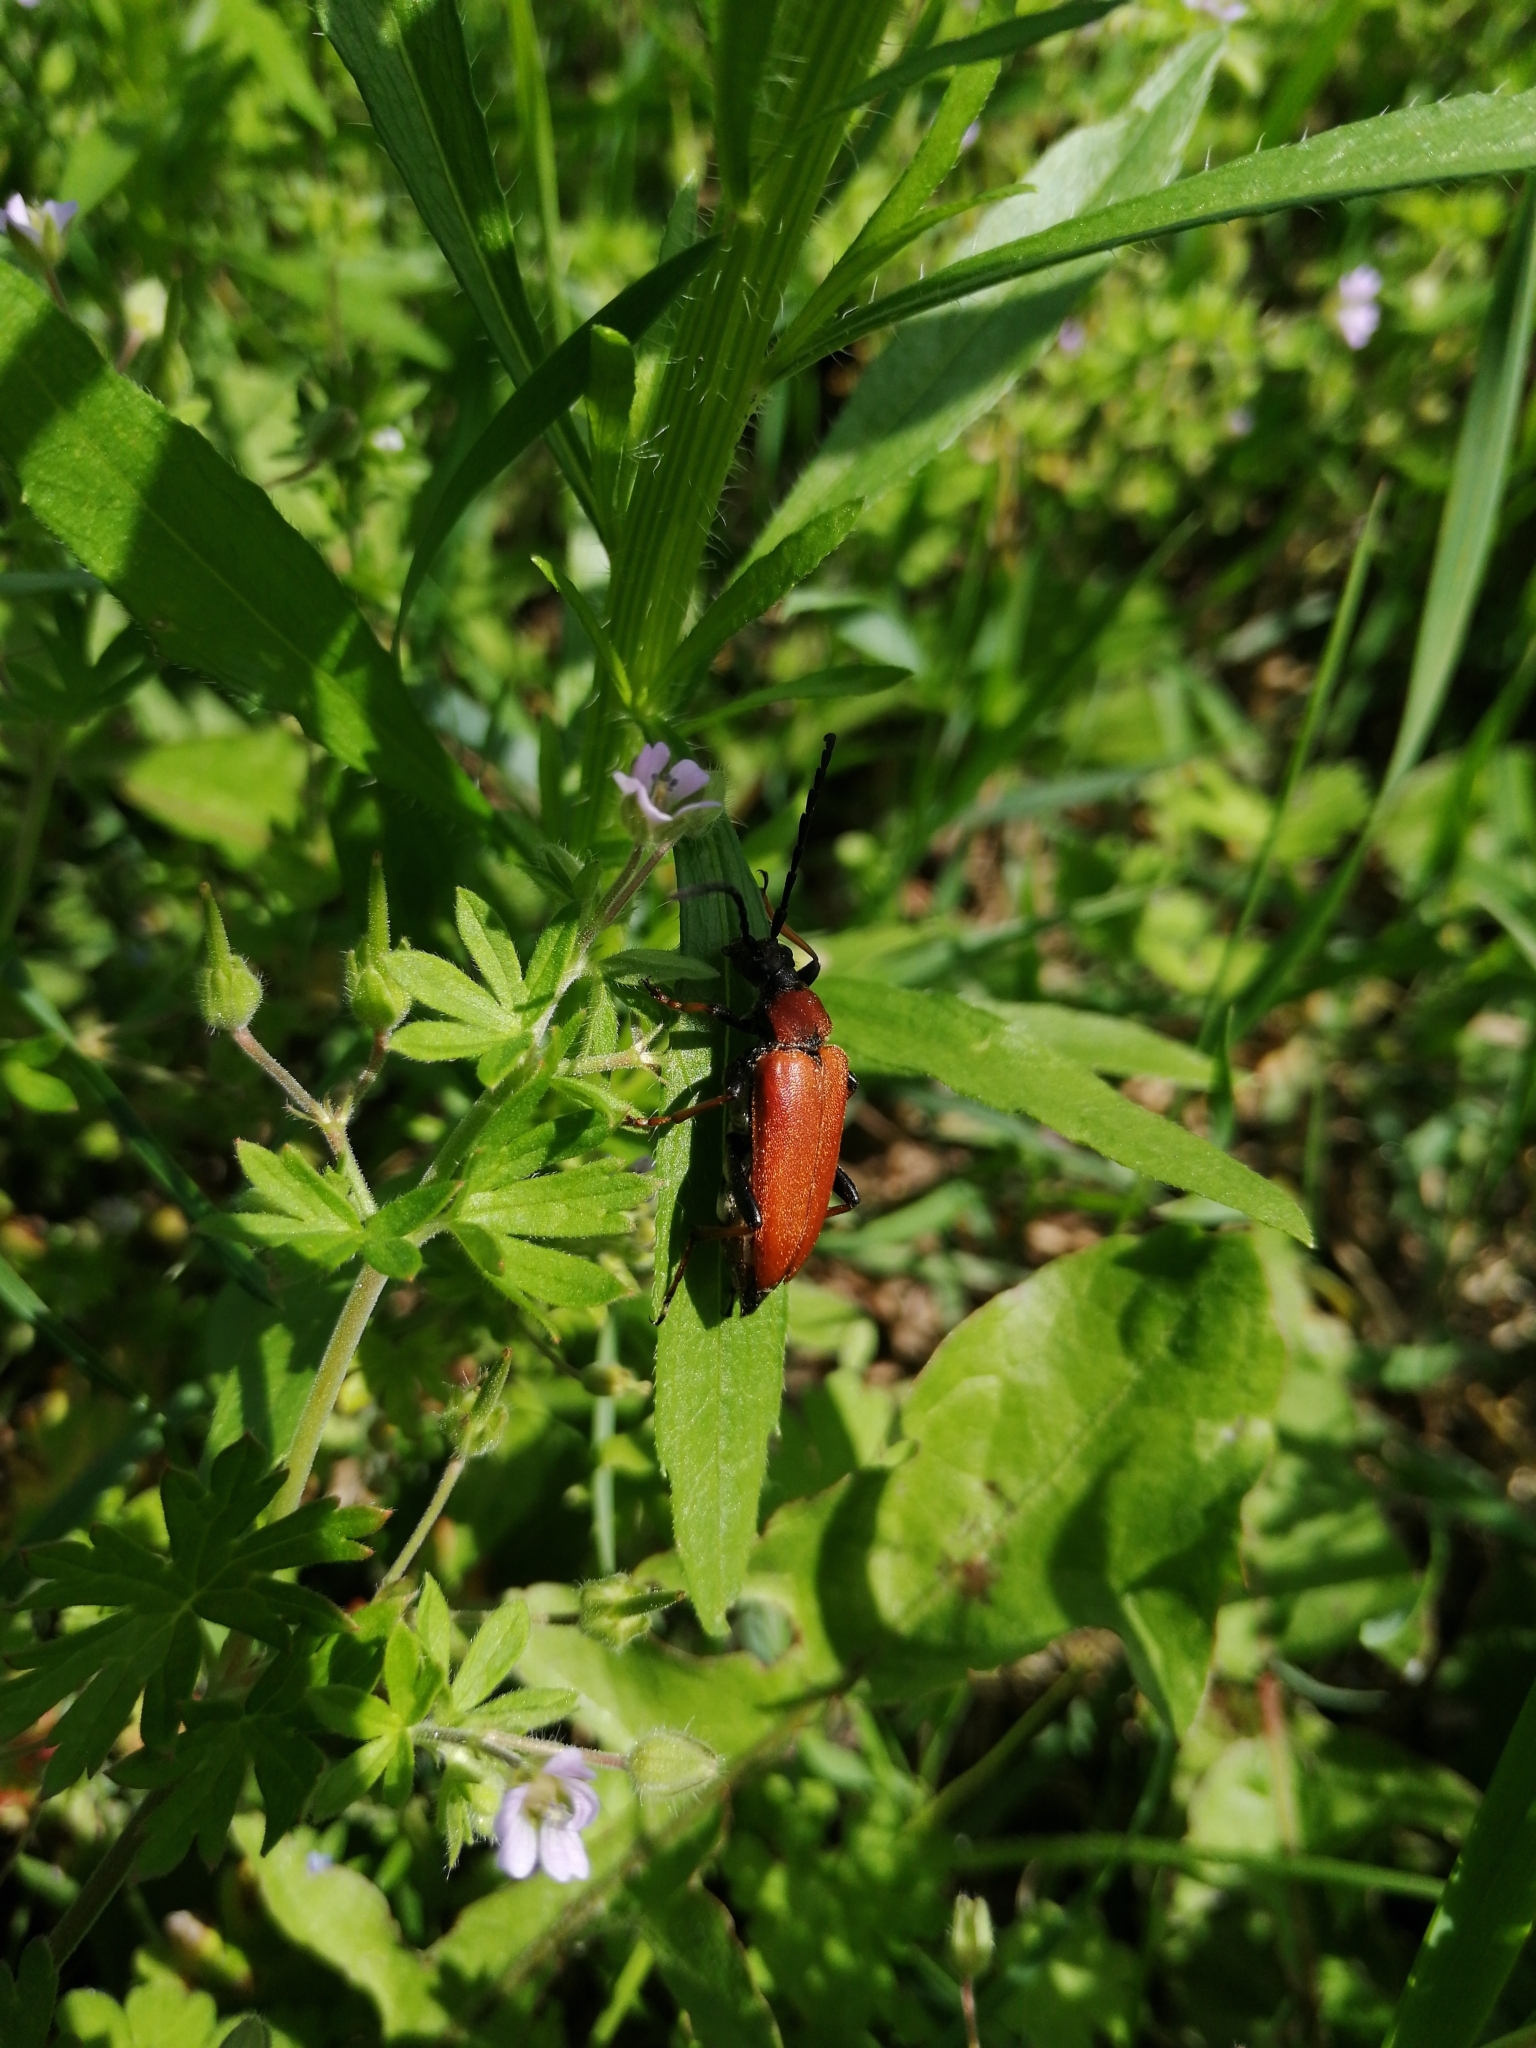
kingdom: Animalia
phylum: Arthropoda
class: Insecta
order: Coleoptera
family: Cerambycidae
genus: Stictoleptura
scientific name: Stictoleptura rubra
